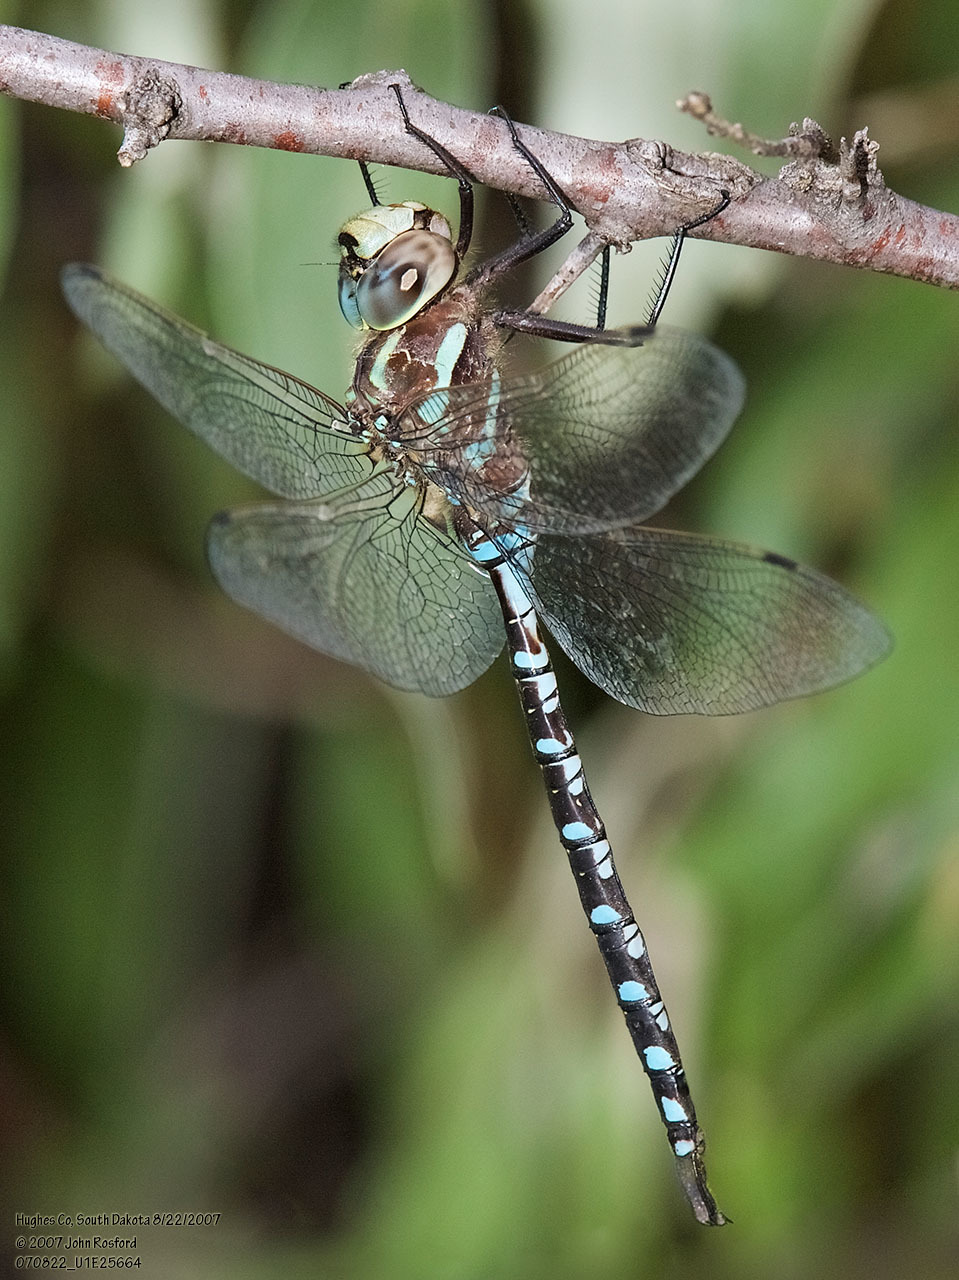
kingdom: Animalia
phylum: Arthropoda
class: Insecta
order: Odonata
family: Aeshnidae
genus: Aeshna
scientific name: Aeshna constricta
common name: Lance-tipped darner
